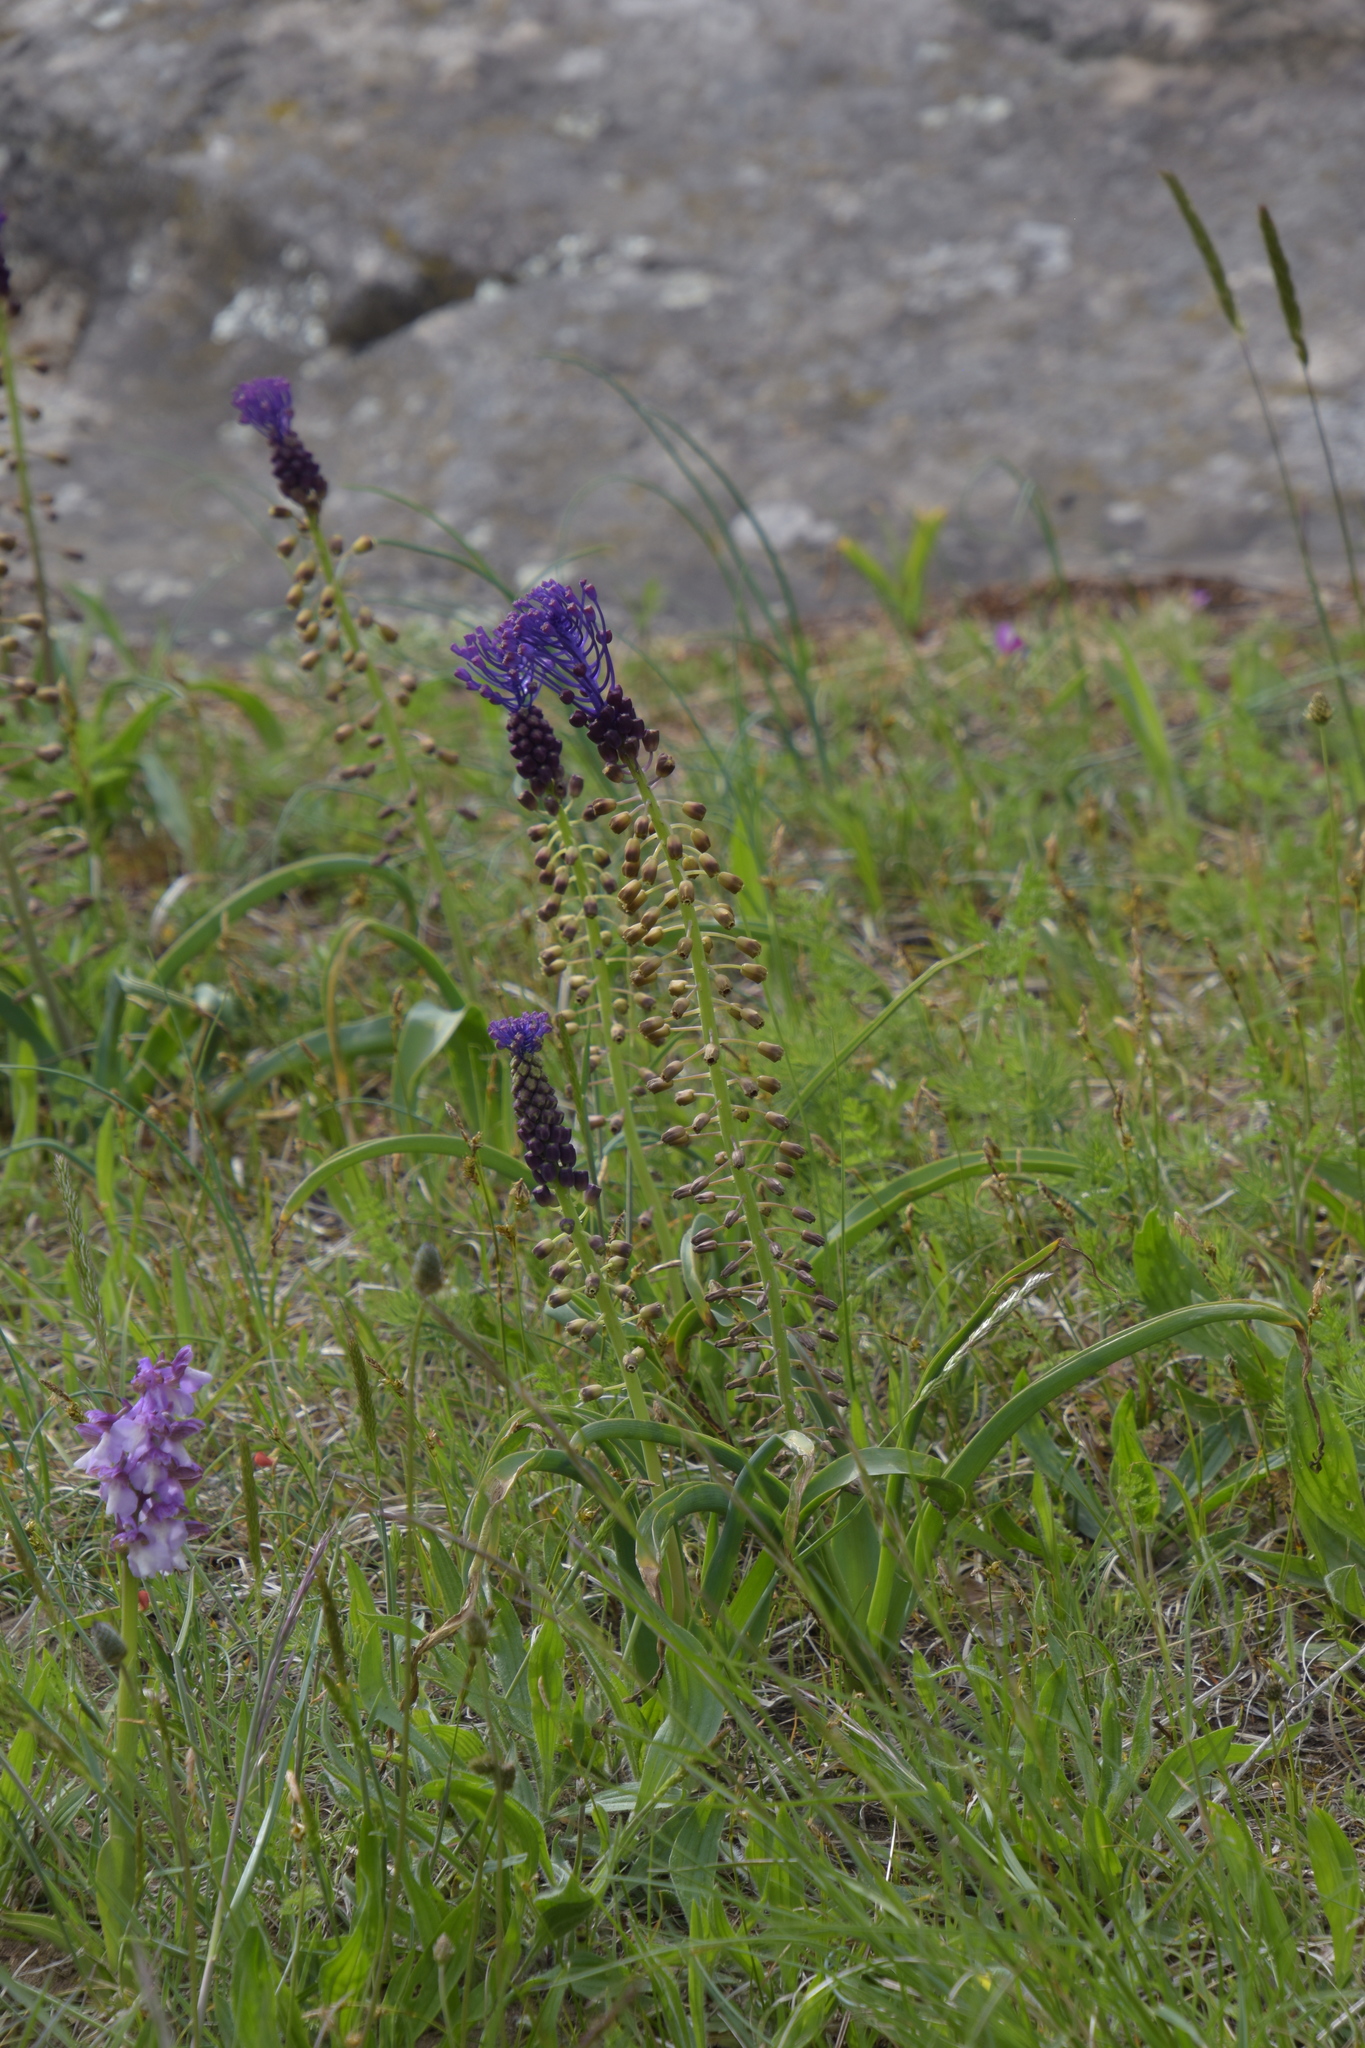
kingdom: Plantae
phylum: Tracheophyta
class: Liliopsida
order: Asparagales
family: Asparagaceae
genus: Muscari
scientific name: Muscari comosum
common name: Tassel hyacinth
